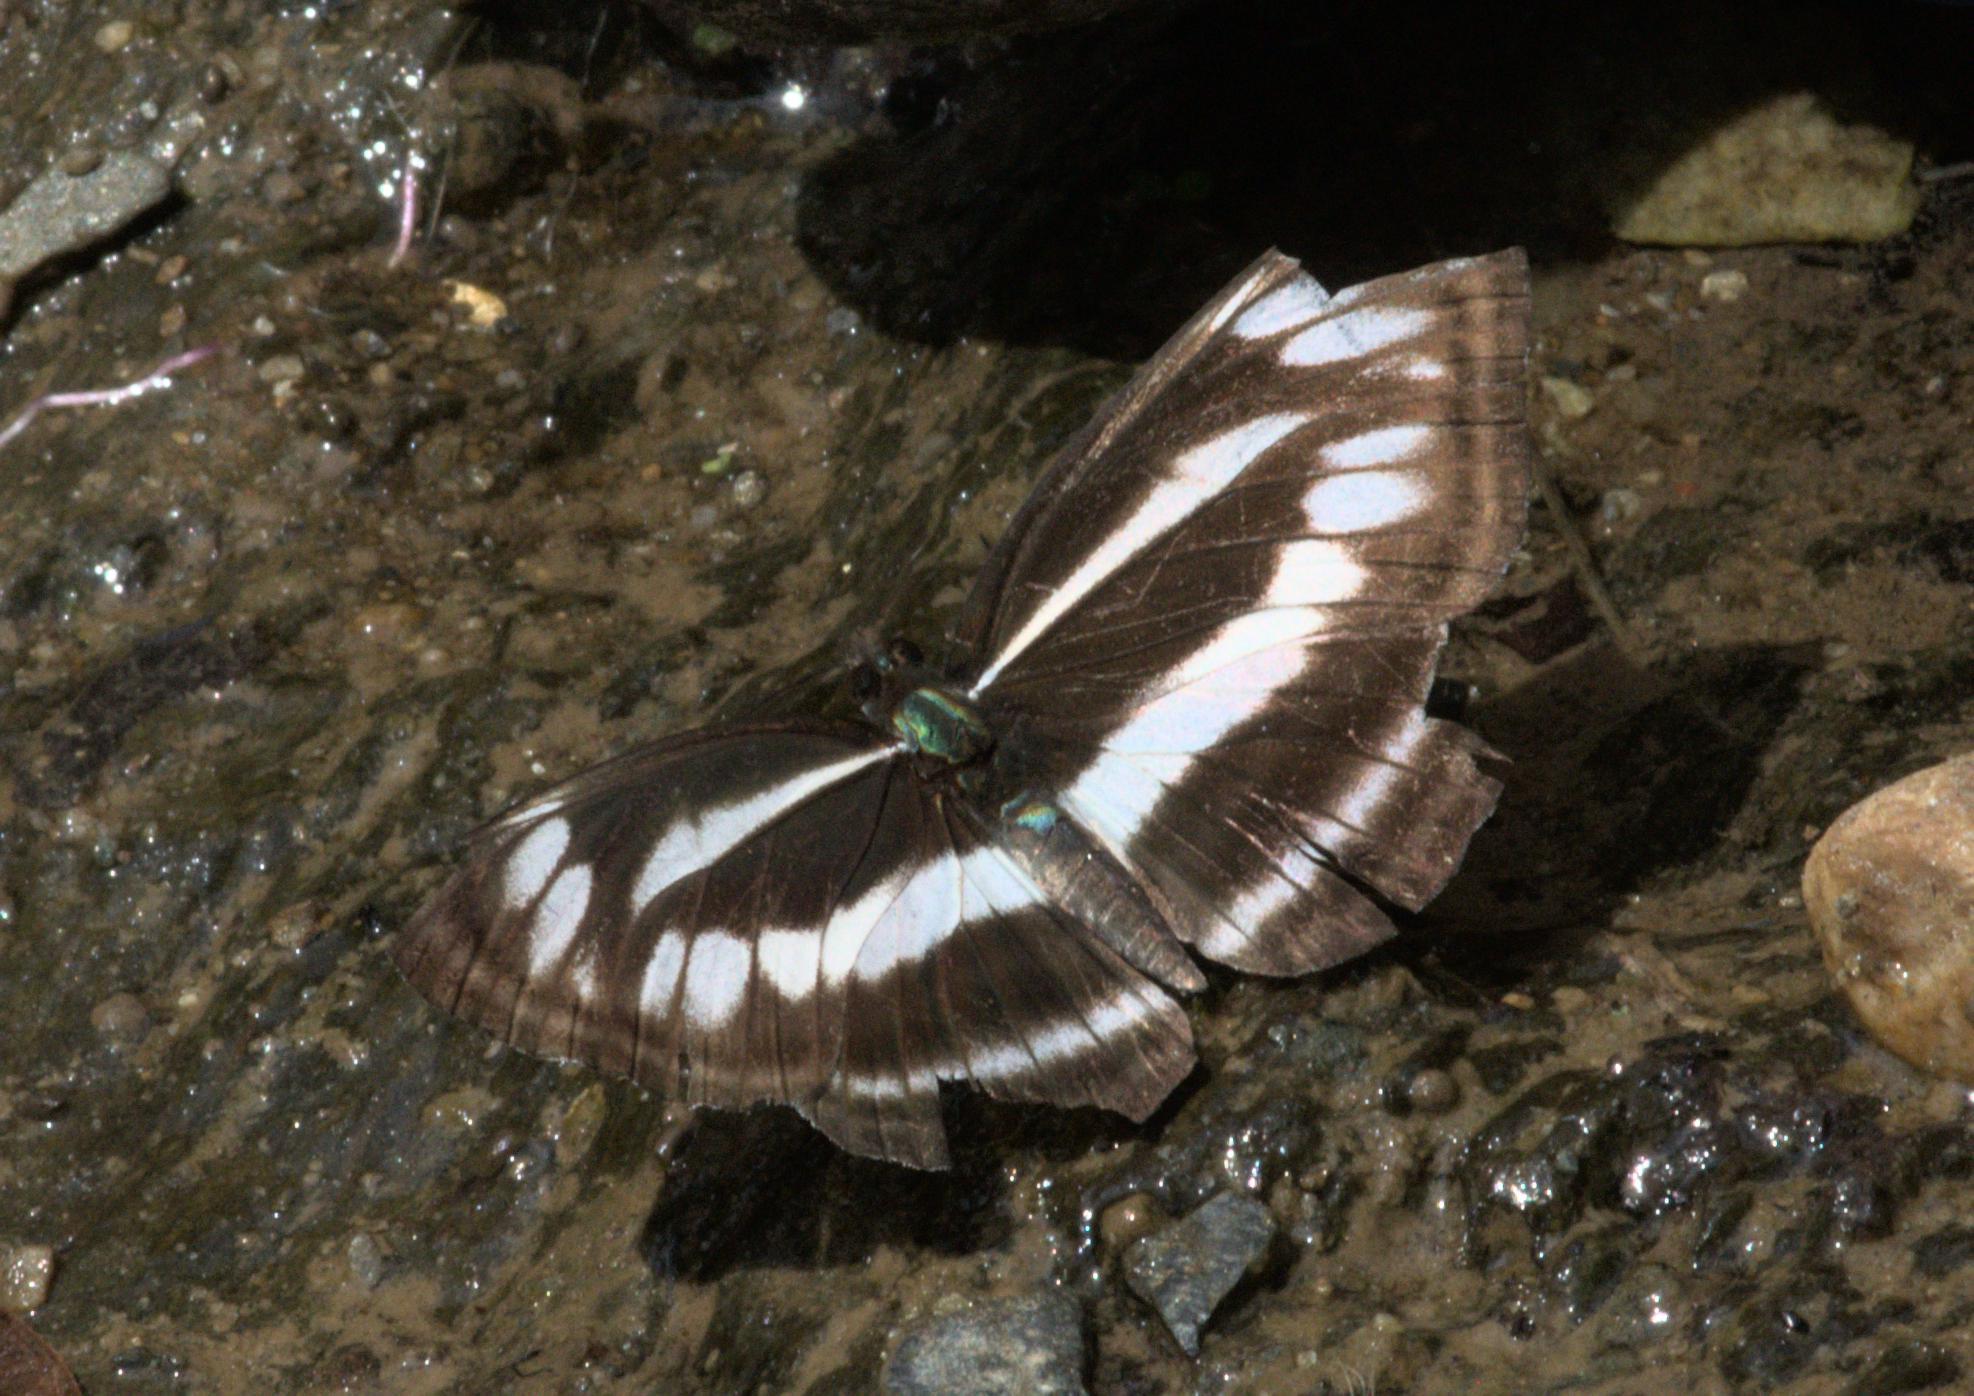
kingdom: Animalia
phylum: Arthropoda
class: Insecta
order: Lepidoptera
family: Nymphalidae
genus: Neptis
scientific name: Neptis sankara
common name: Broad-banded sailer
